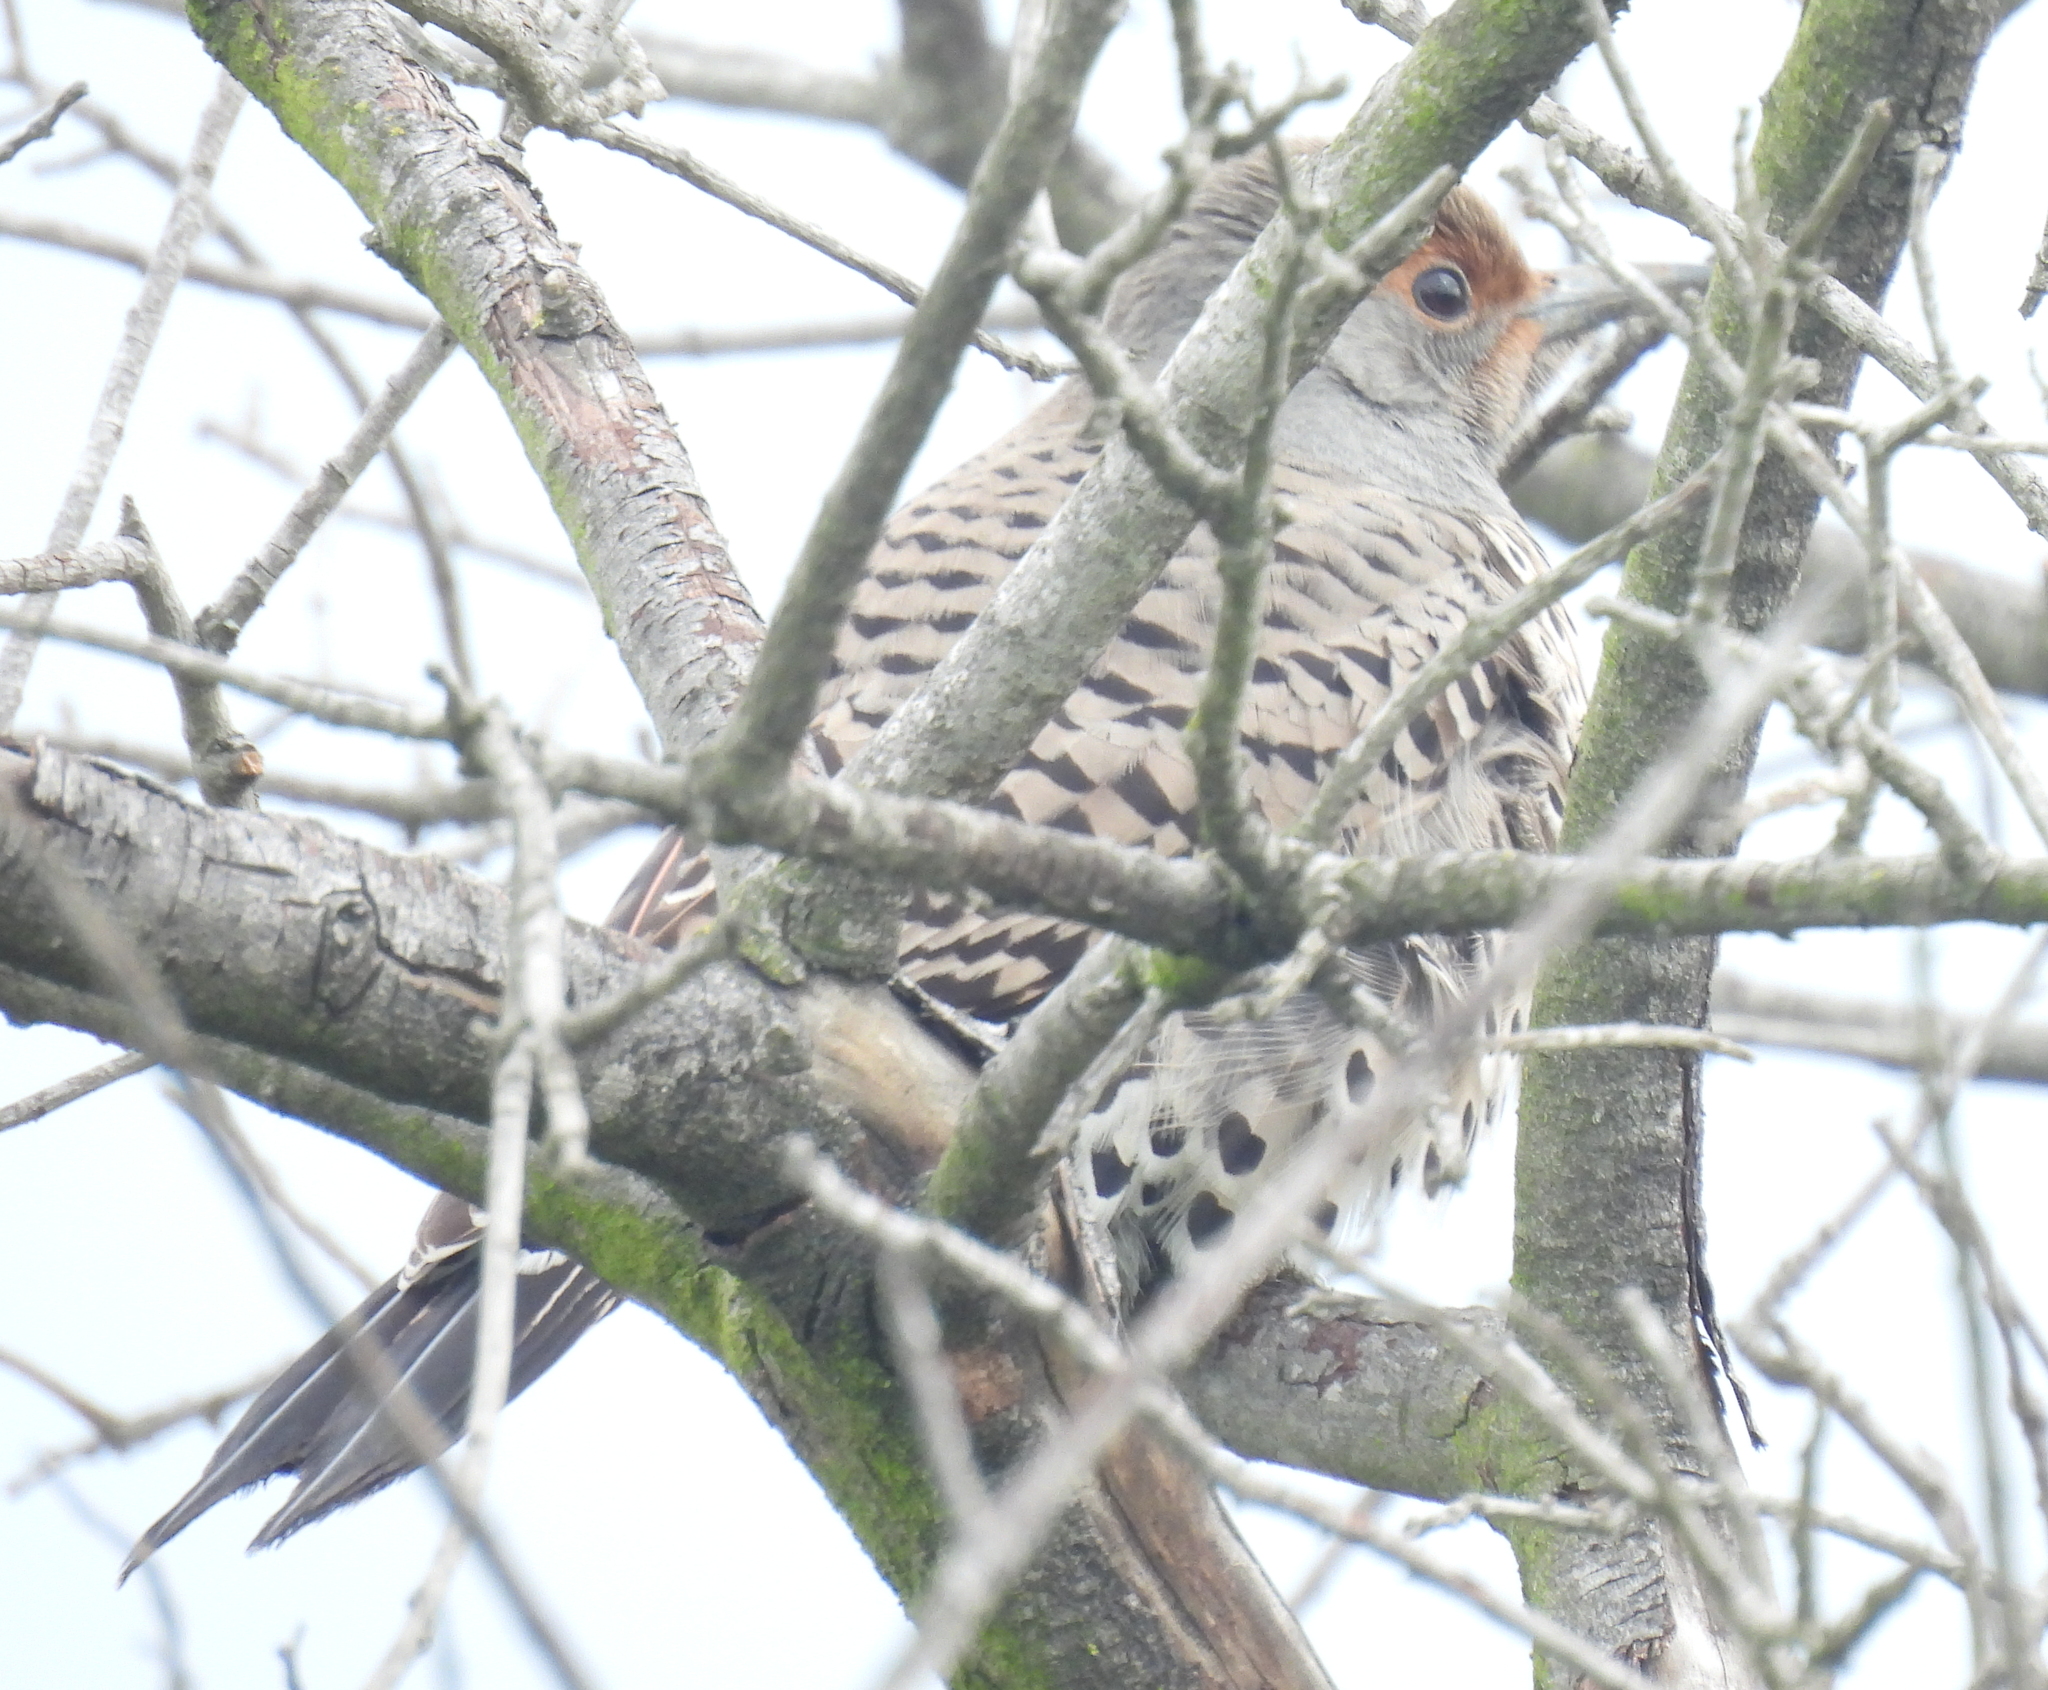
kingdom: Animalia
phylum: Chordata
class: Aves
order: Piciformes
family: Picidae
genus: Colaptes
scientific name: Colaptes auratus
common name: Northern flicker
